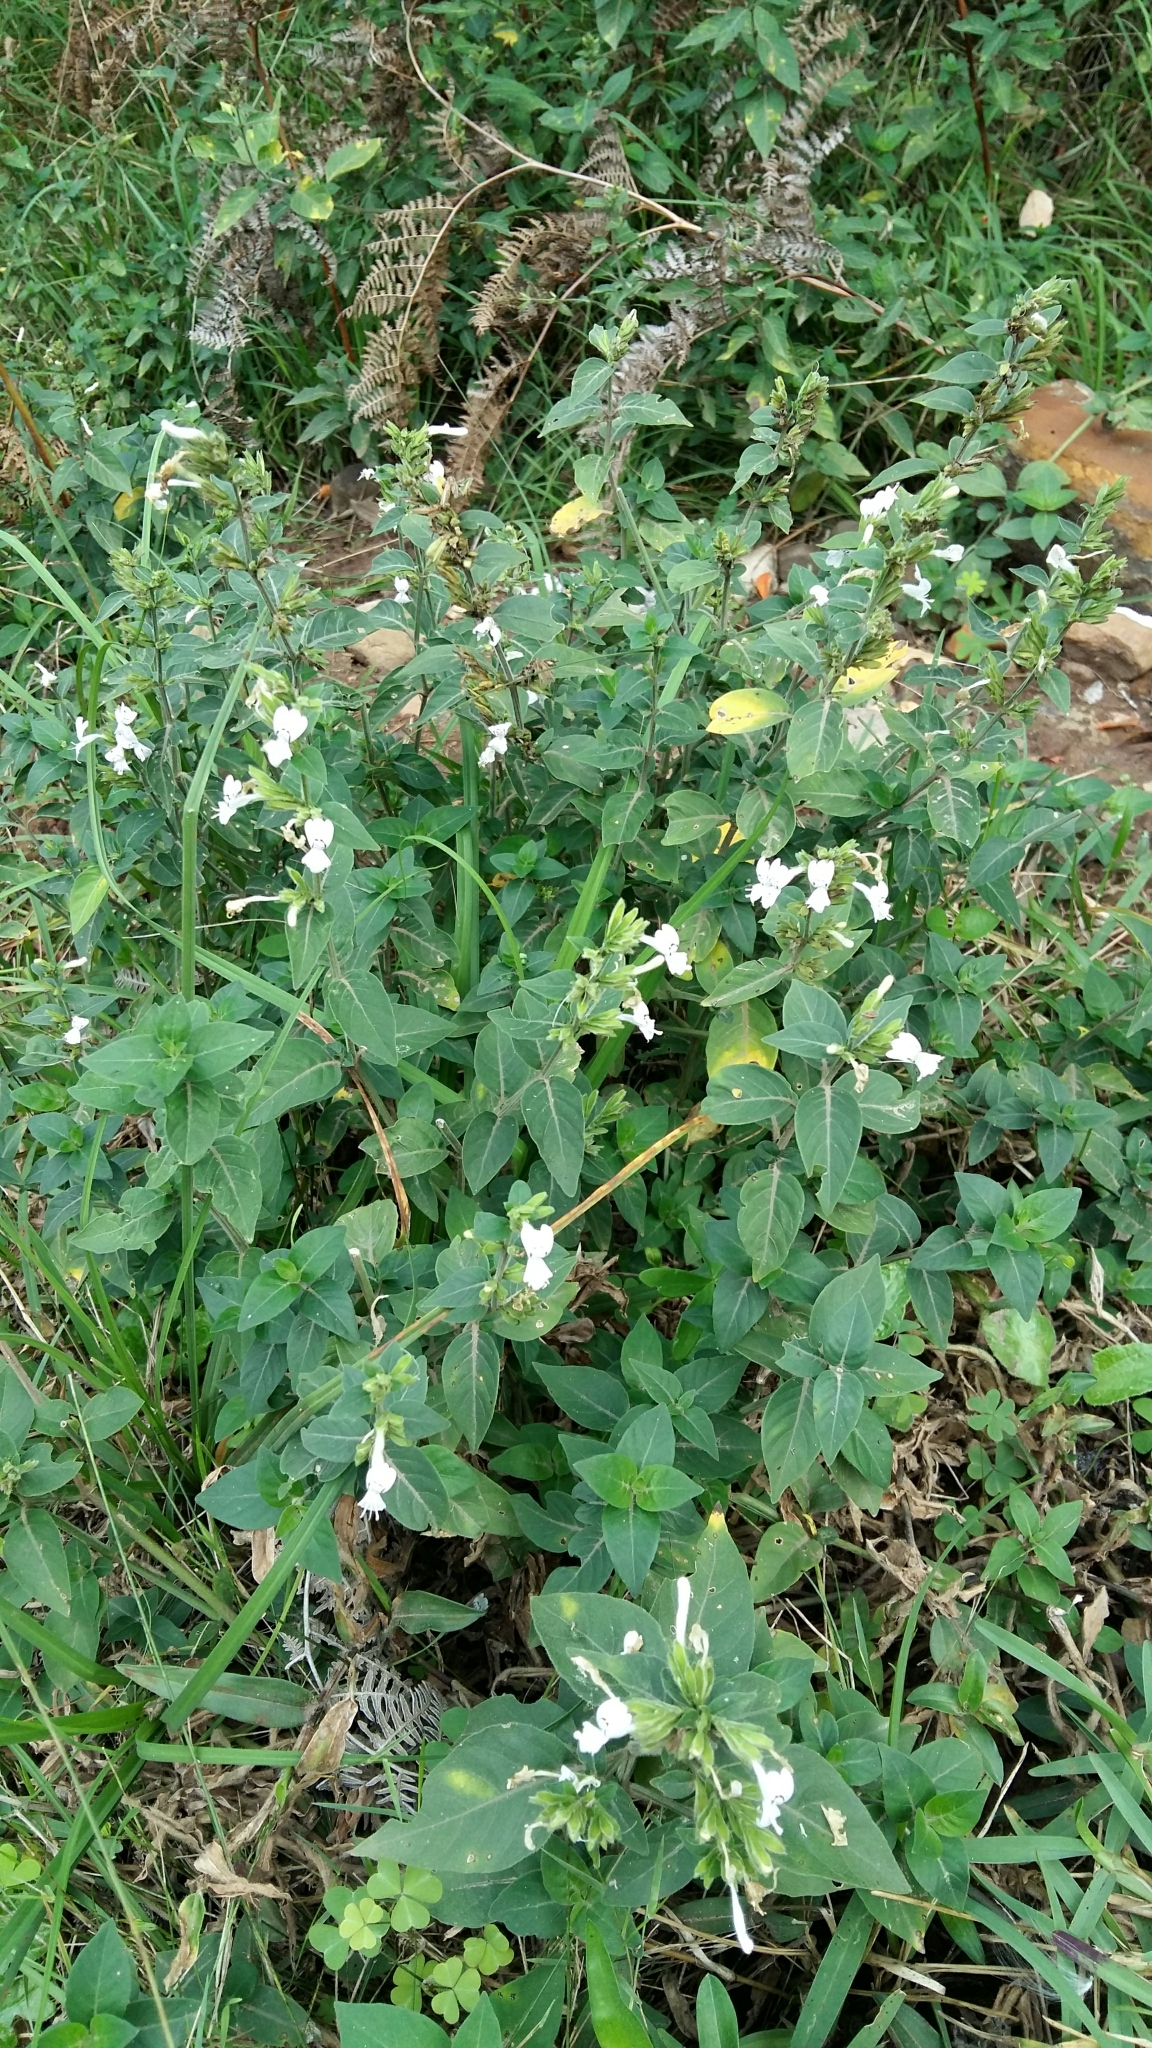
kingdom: Plantae
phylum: Tracheophyta
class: Magnoliopsida
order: Lamiales
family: Acanthaceae
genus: Hypoestes
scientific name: Hypoestes forskaolii
